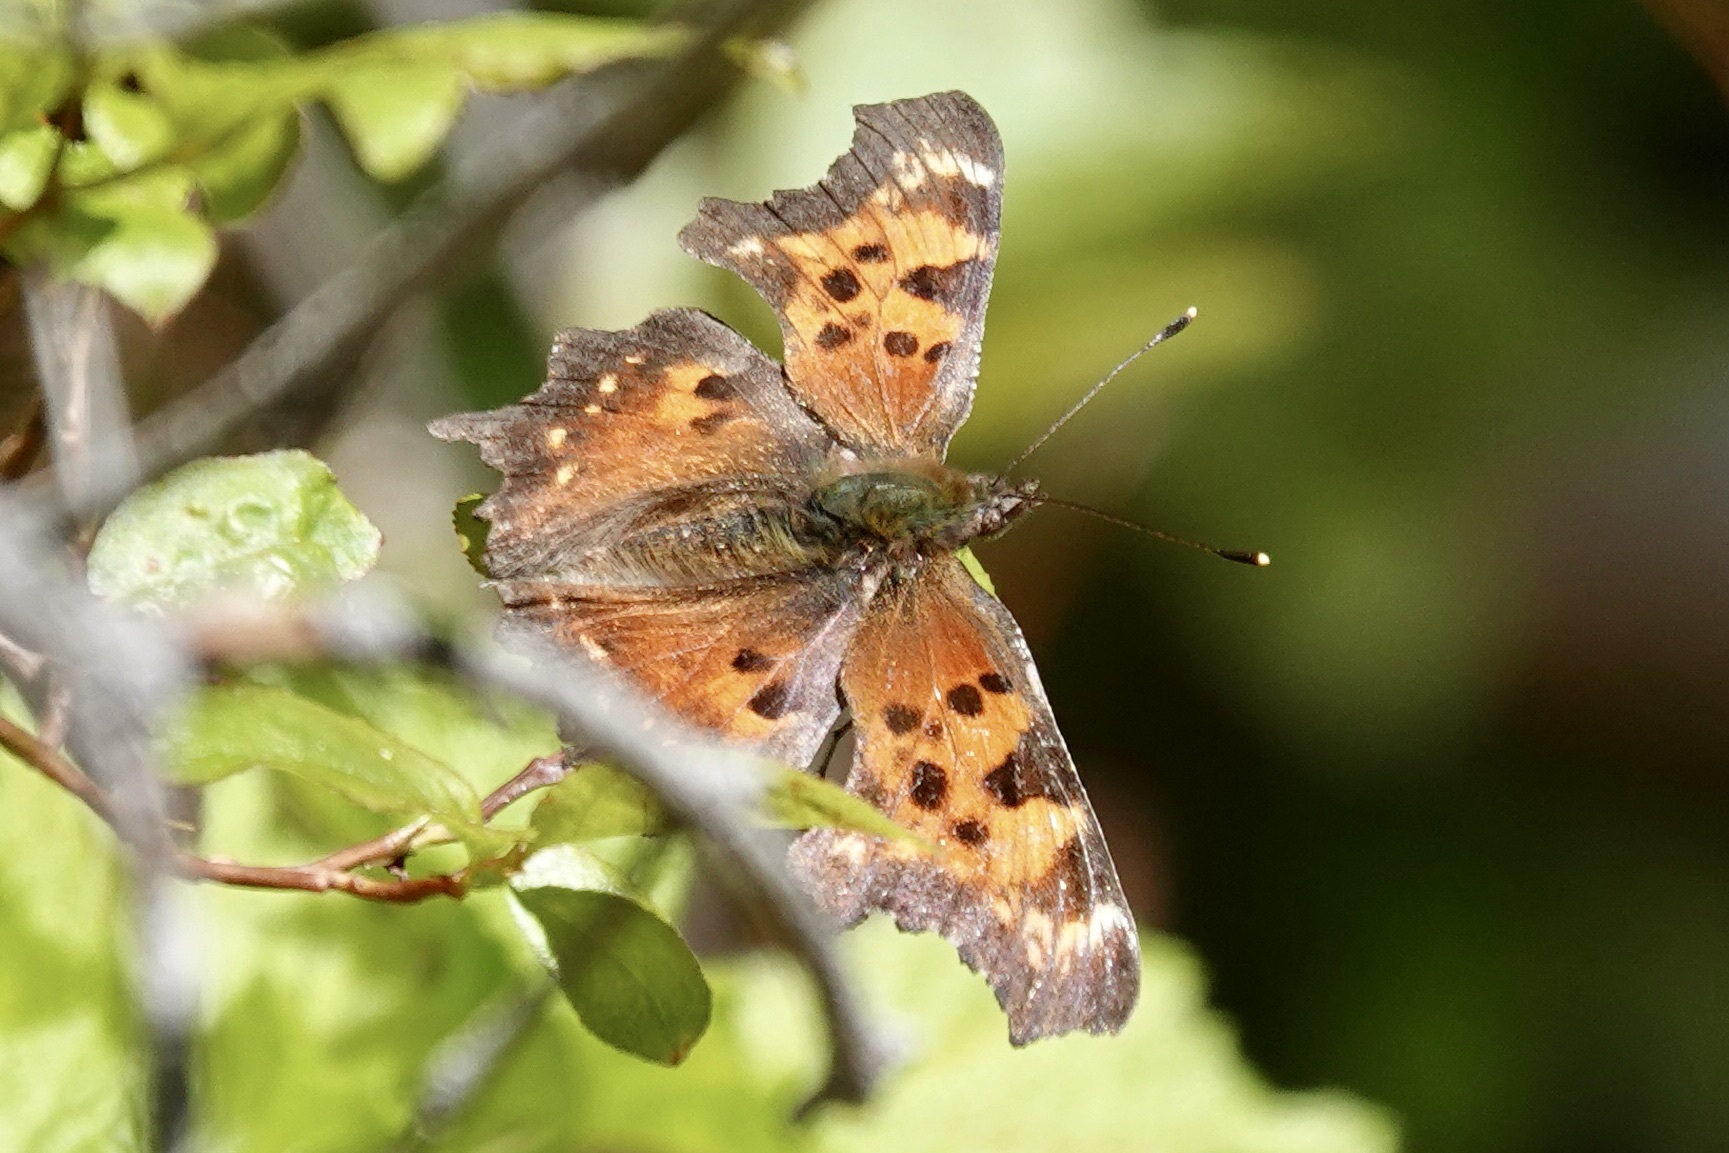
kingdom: Animalia
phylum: Arthropoda
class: Insecta
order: Lepidoptera
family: Nymphalidae
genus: Polygonia
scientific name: Polygonia faunus
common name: Green comma
